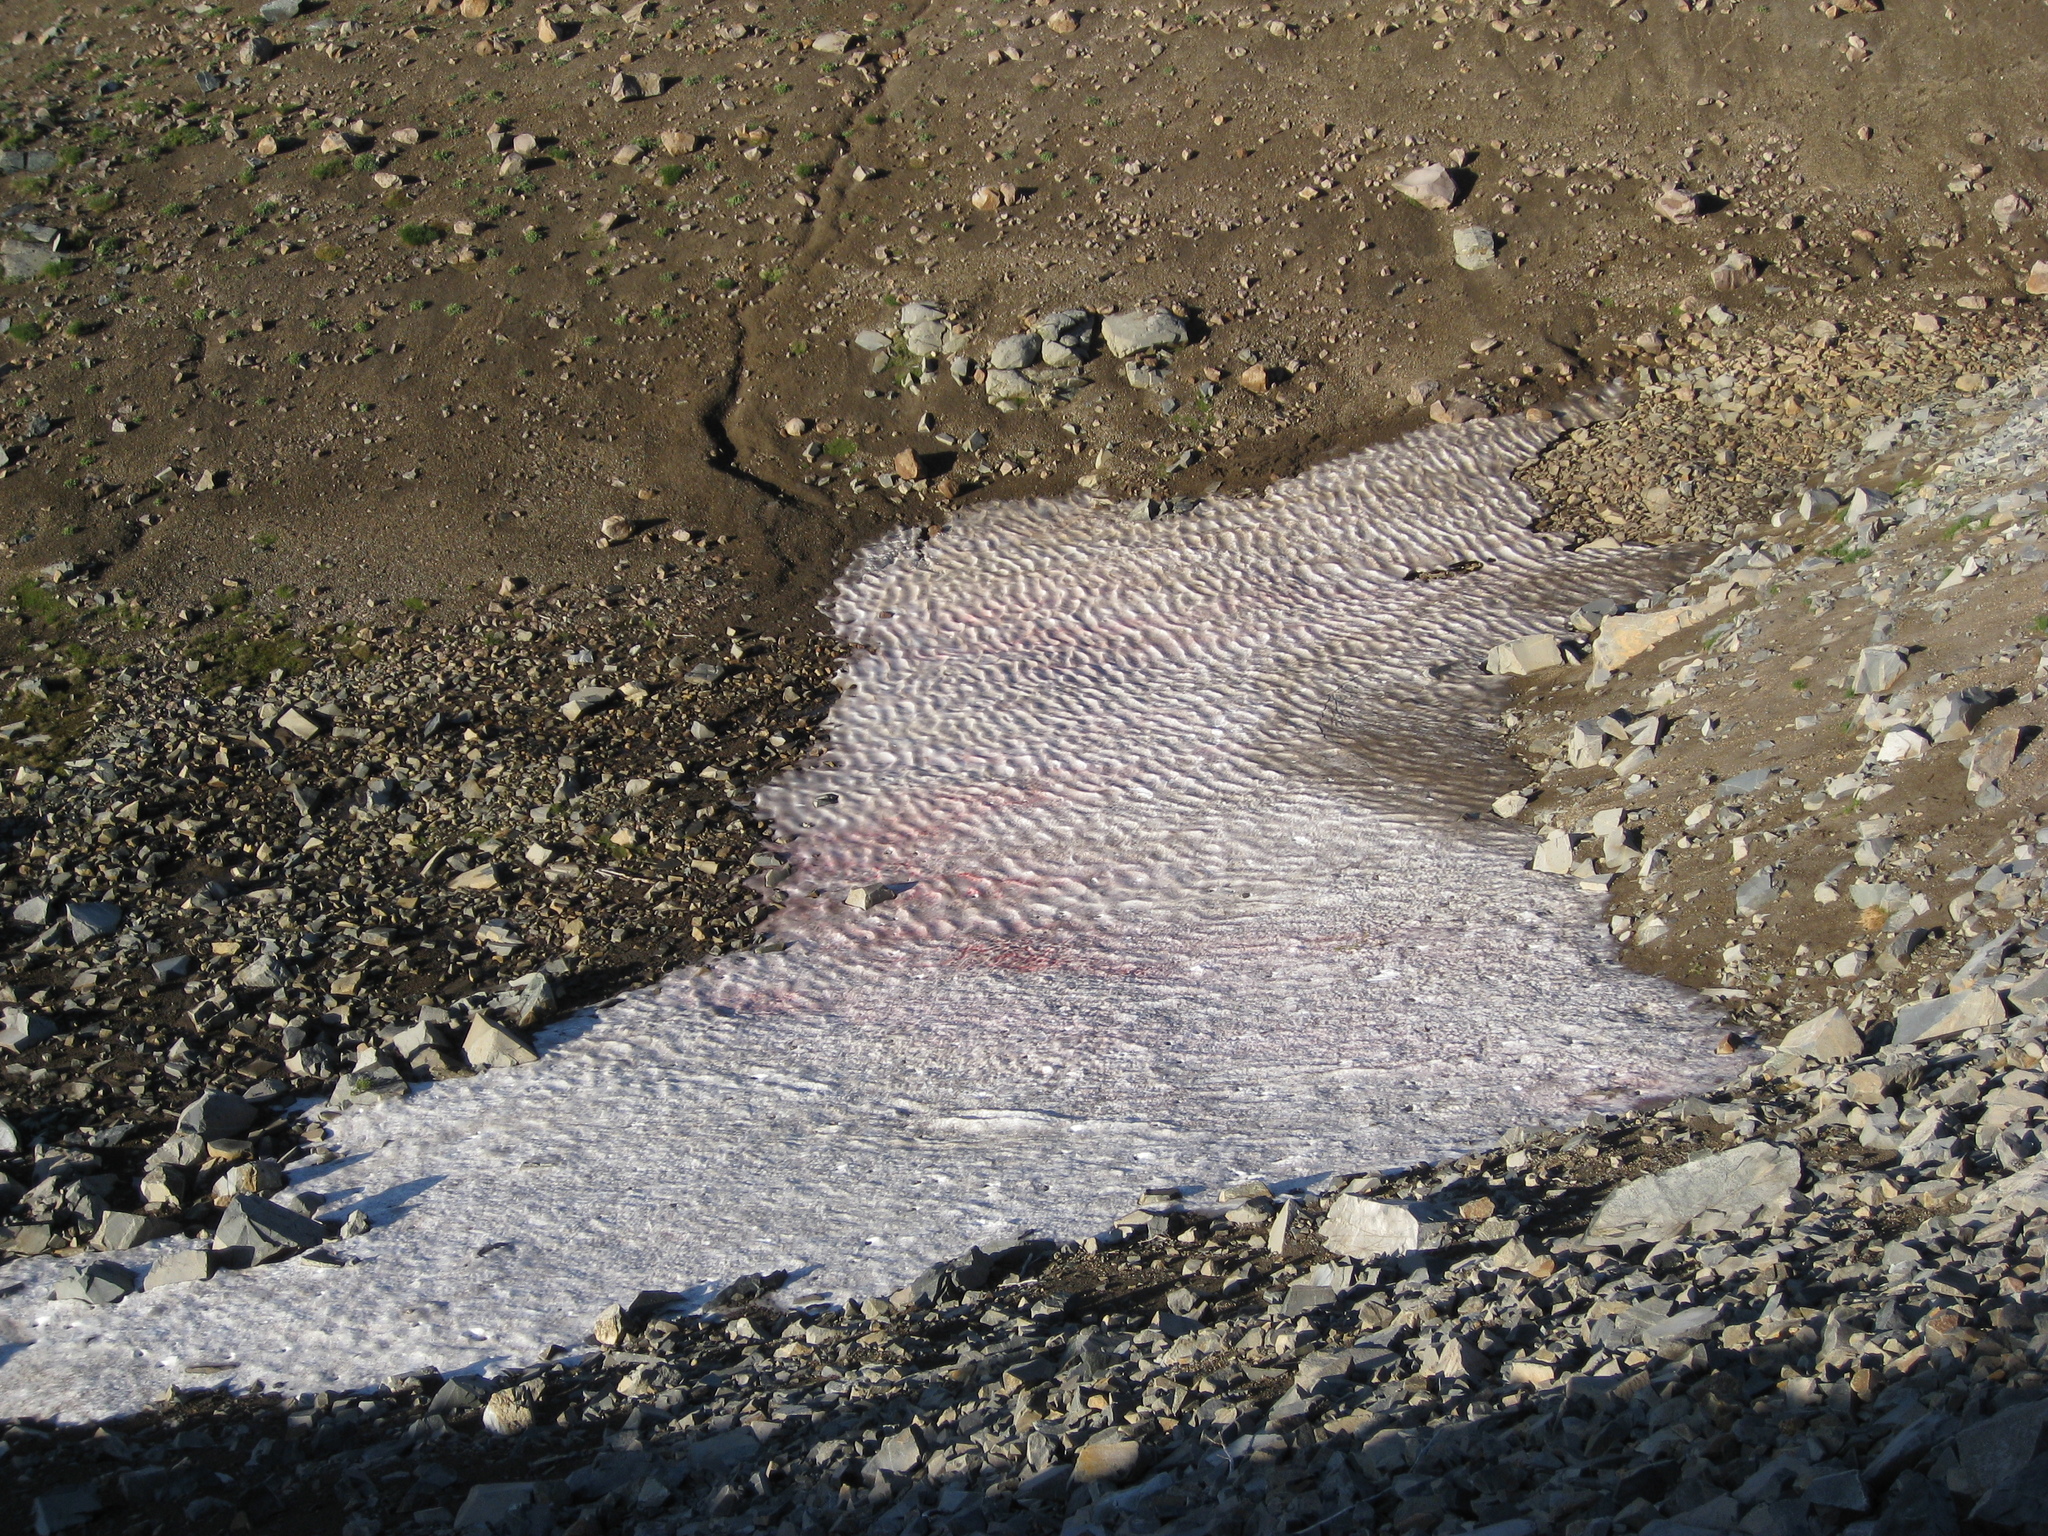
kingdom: Plantae
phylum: Chlorophyta
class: Chlorophyceae
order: Volvocales
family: Chlamydomonadaceae
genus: Chlamydomonas
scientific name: Chlamydomonas nivalis
